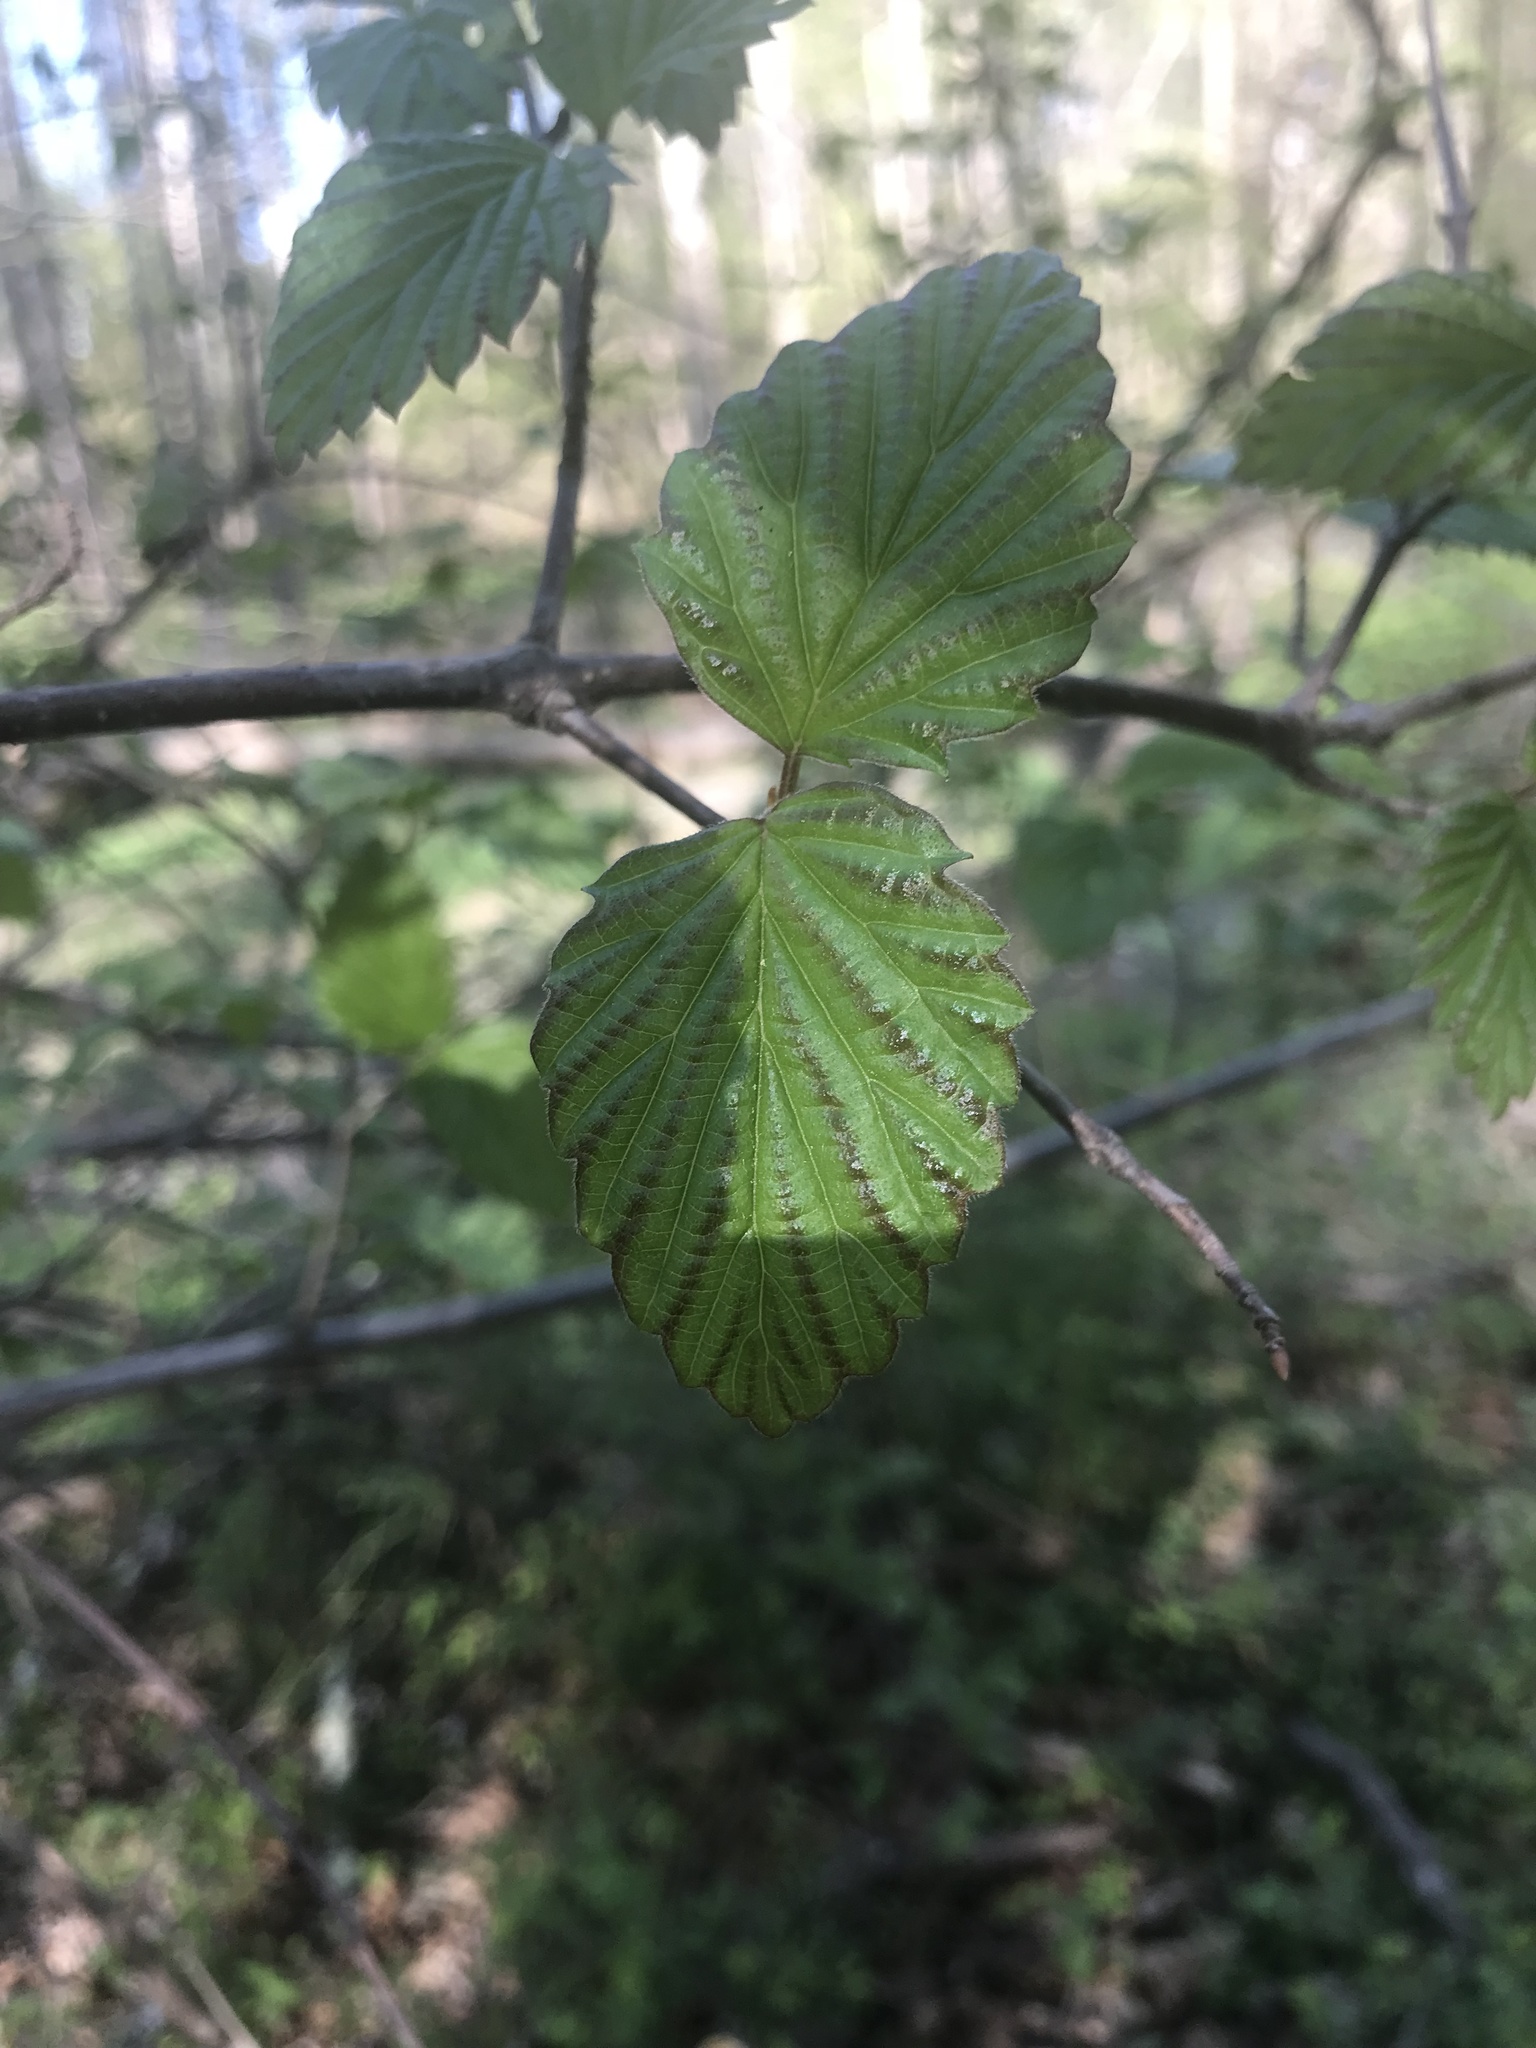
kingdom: Plantae
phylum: Tracheophyta
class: Magnoliopsida
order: Dipsacales
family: Viburnaceae
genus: Viburnum
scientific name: Viburnum dentatum
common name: Arrow-wood
